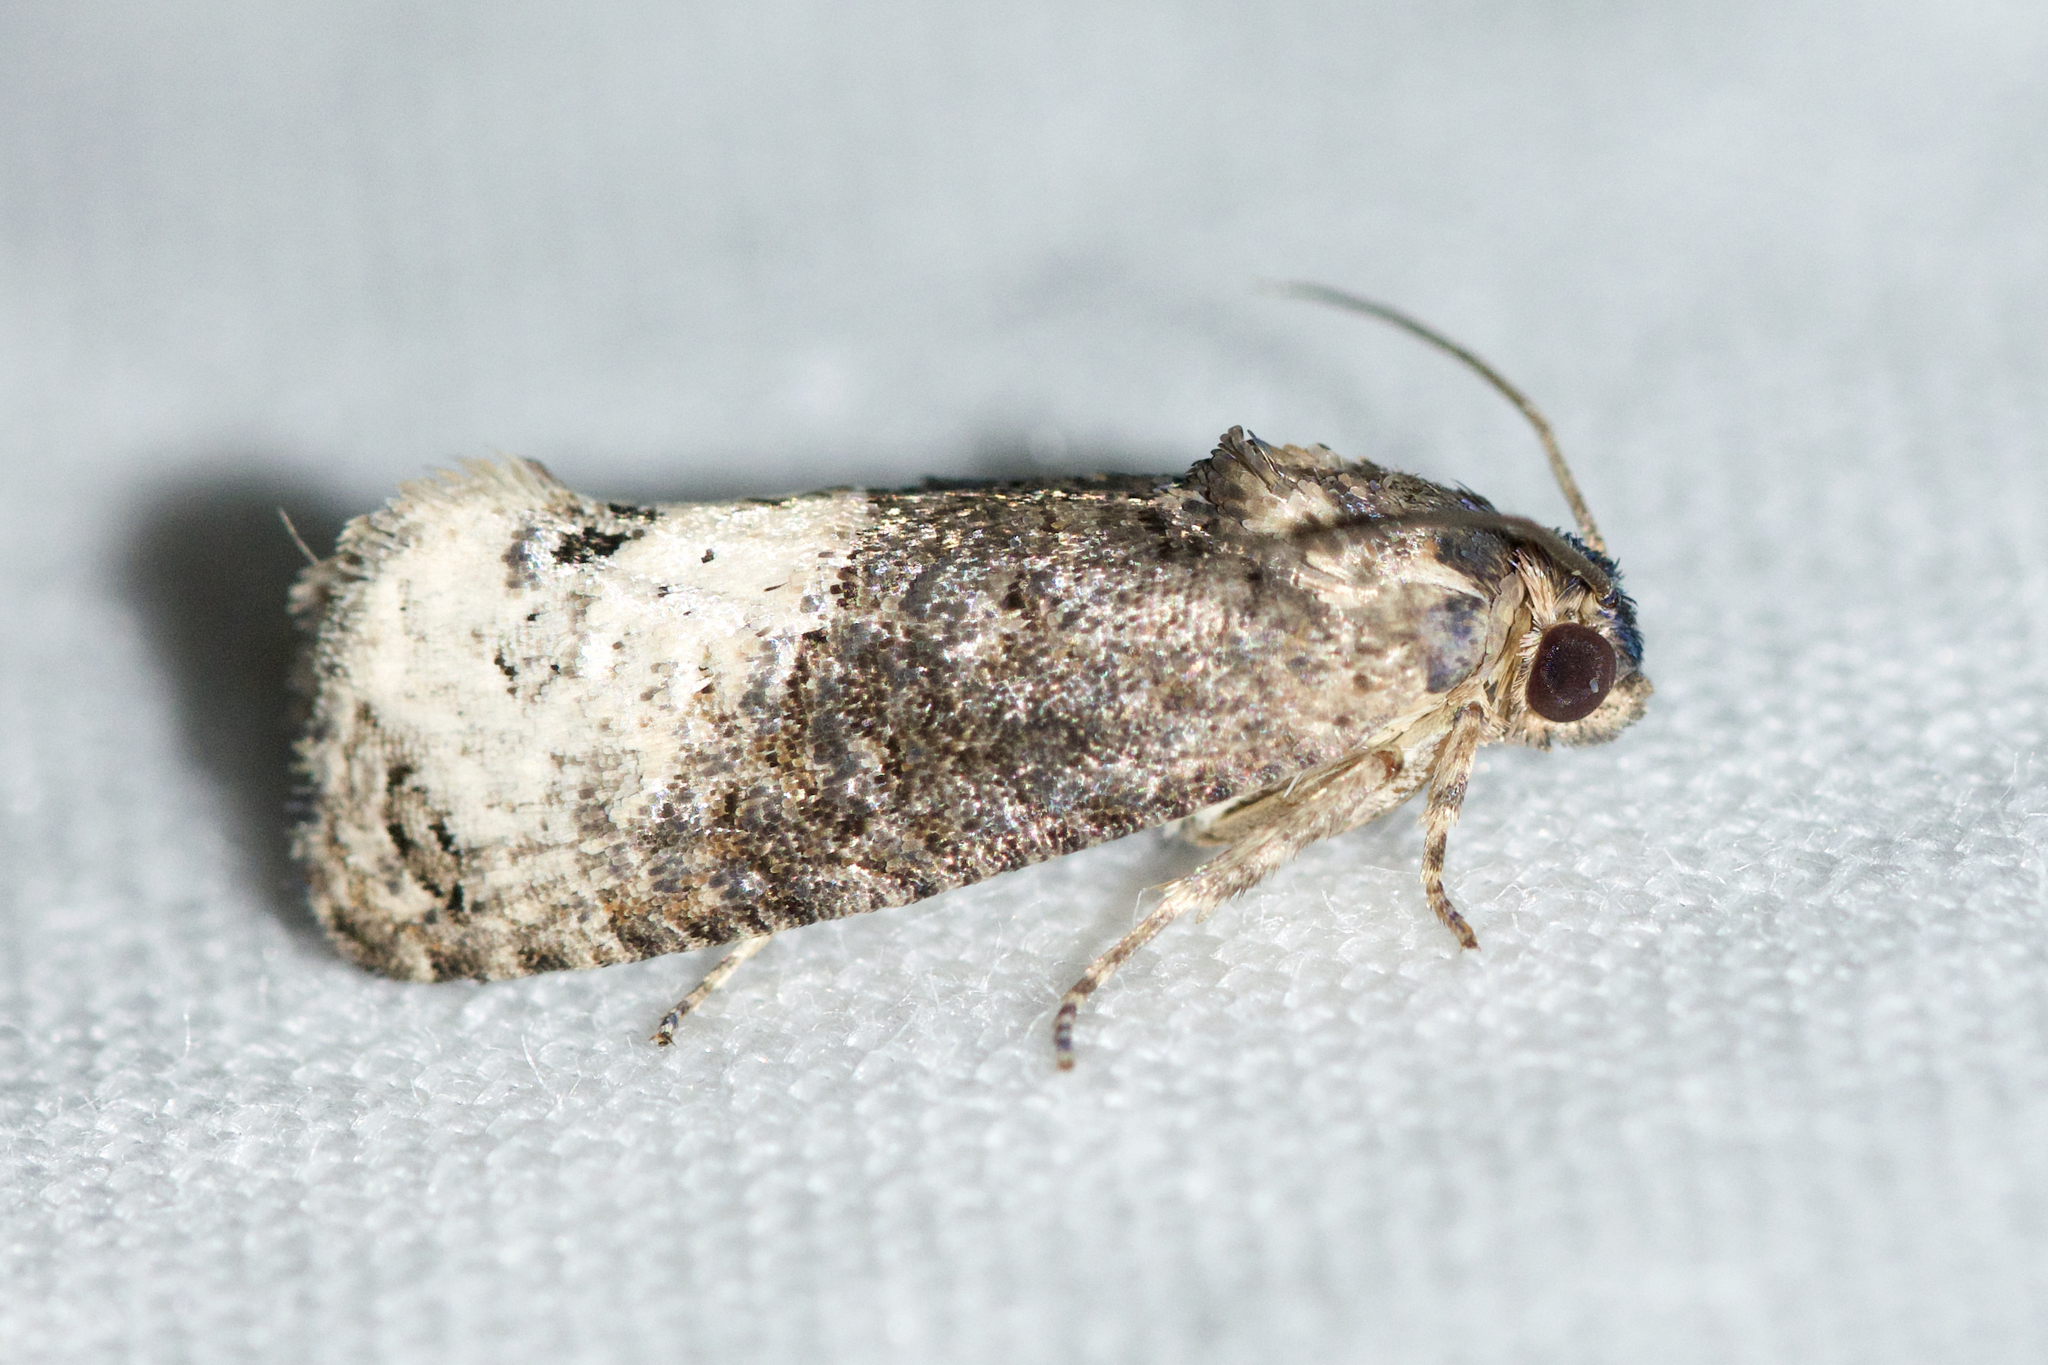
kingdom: Animalia
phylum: Arthropoda
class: Insecta
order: Lepidoptera
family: Tortricidae
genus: Ecdytolopha
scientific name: Ecdytolopha insiticiana
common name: Locust twig borer moth
